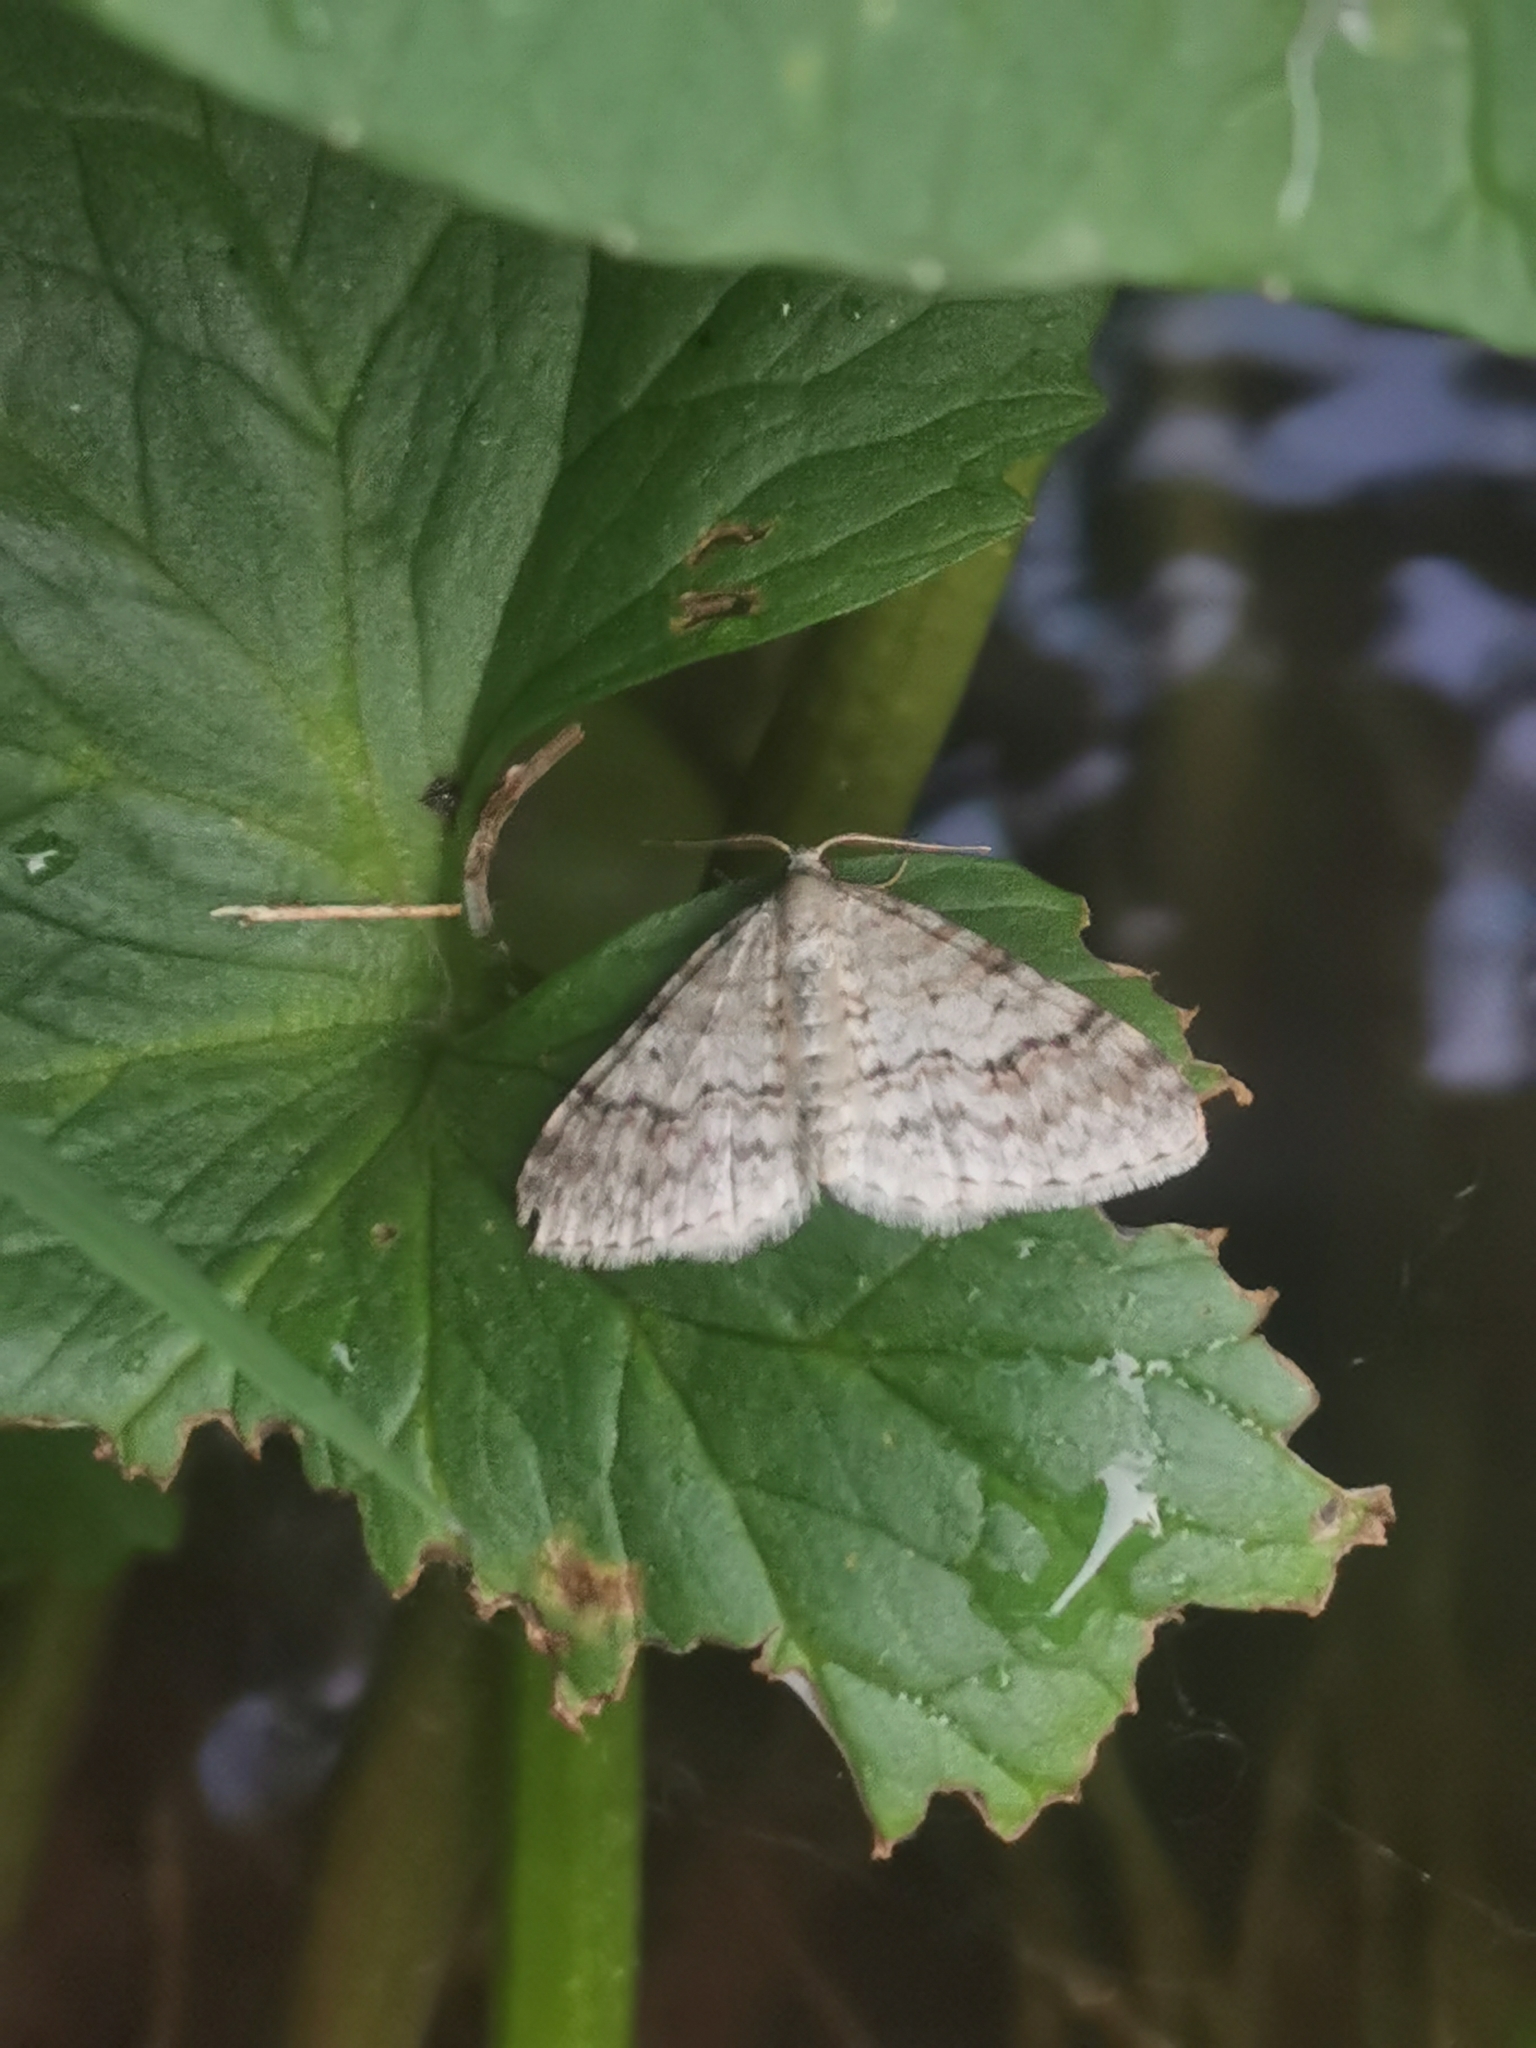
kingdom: Animalia
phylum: Arthropoda
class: Insecta
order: Lepidoptera
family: Geometridae
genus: Venusia
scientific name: Venusia cambrica
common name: Welsh wave
